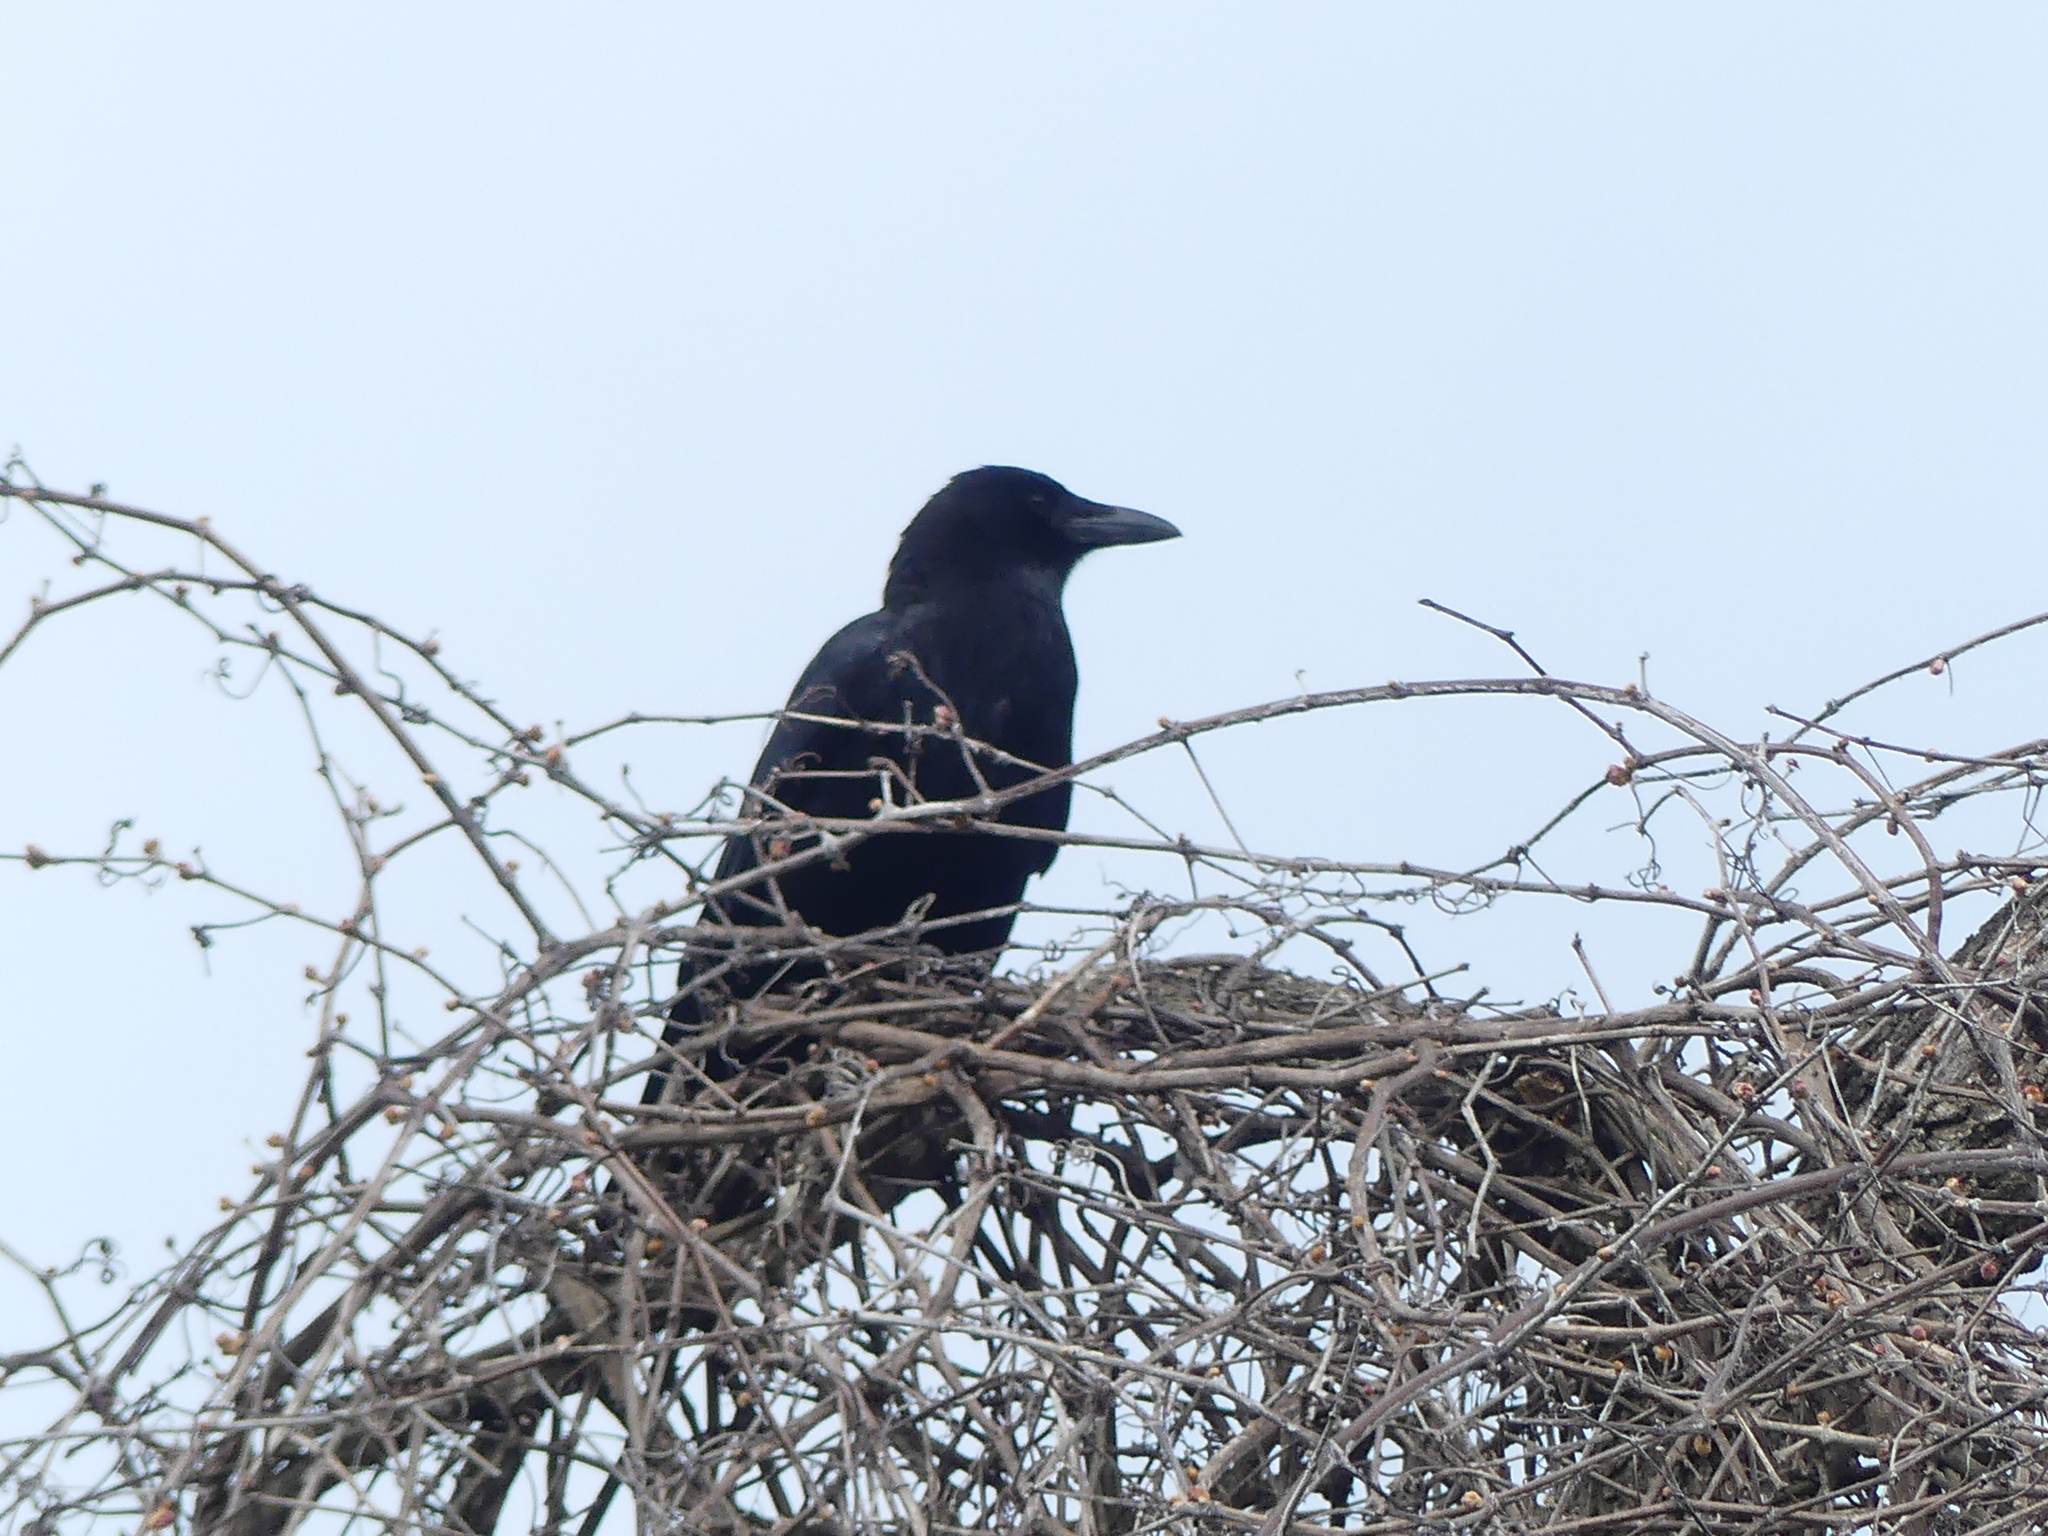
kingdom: Animalia
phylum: Chordata
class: Aves
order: Passeriformes
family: Corvidae
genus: Corvus
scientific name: Corvus brachyrhynchos
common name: American crow
